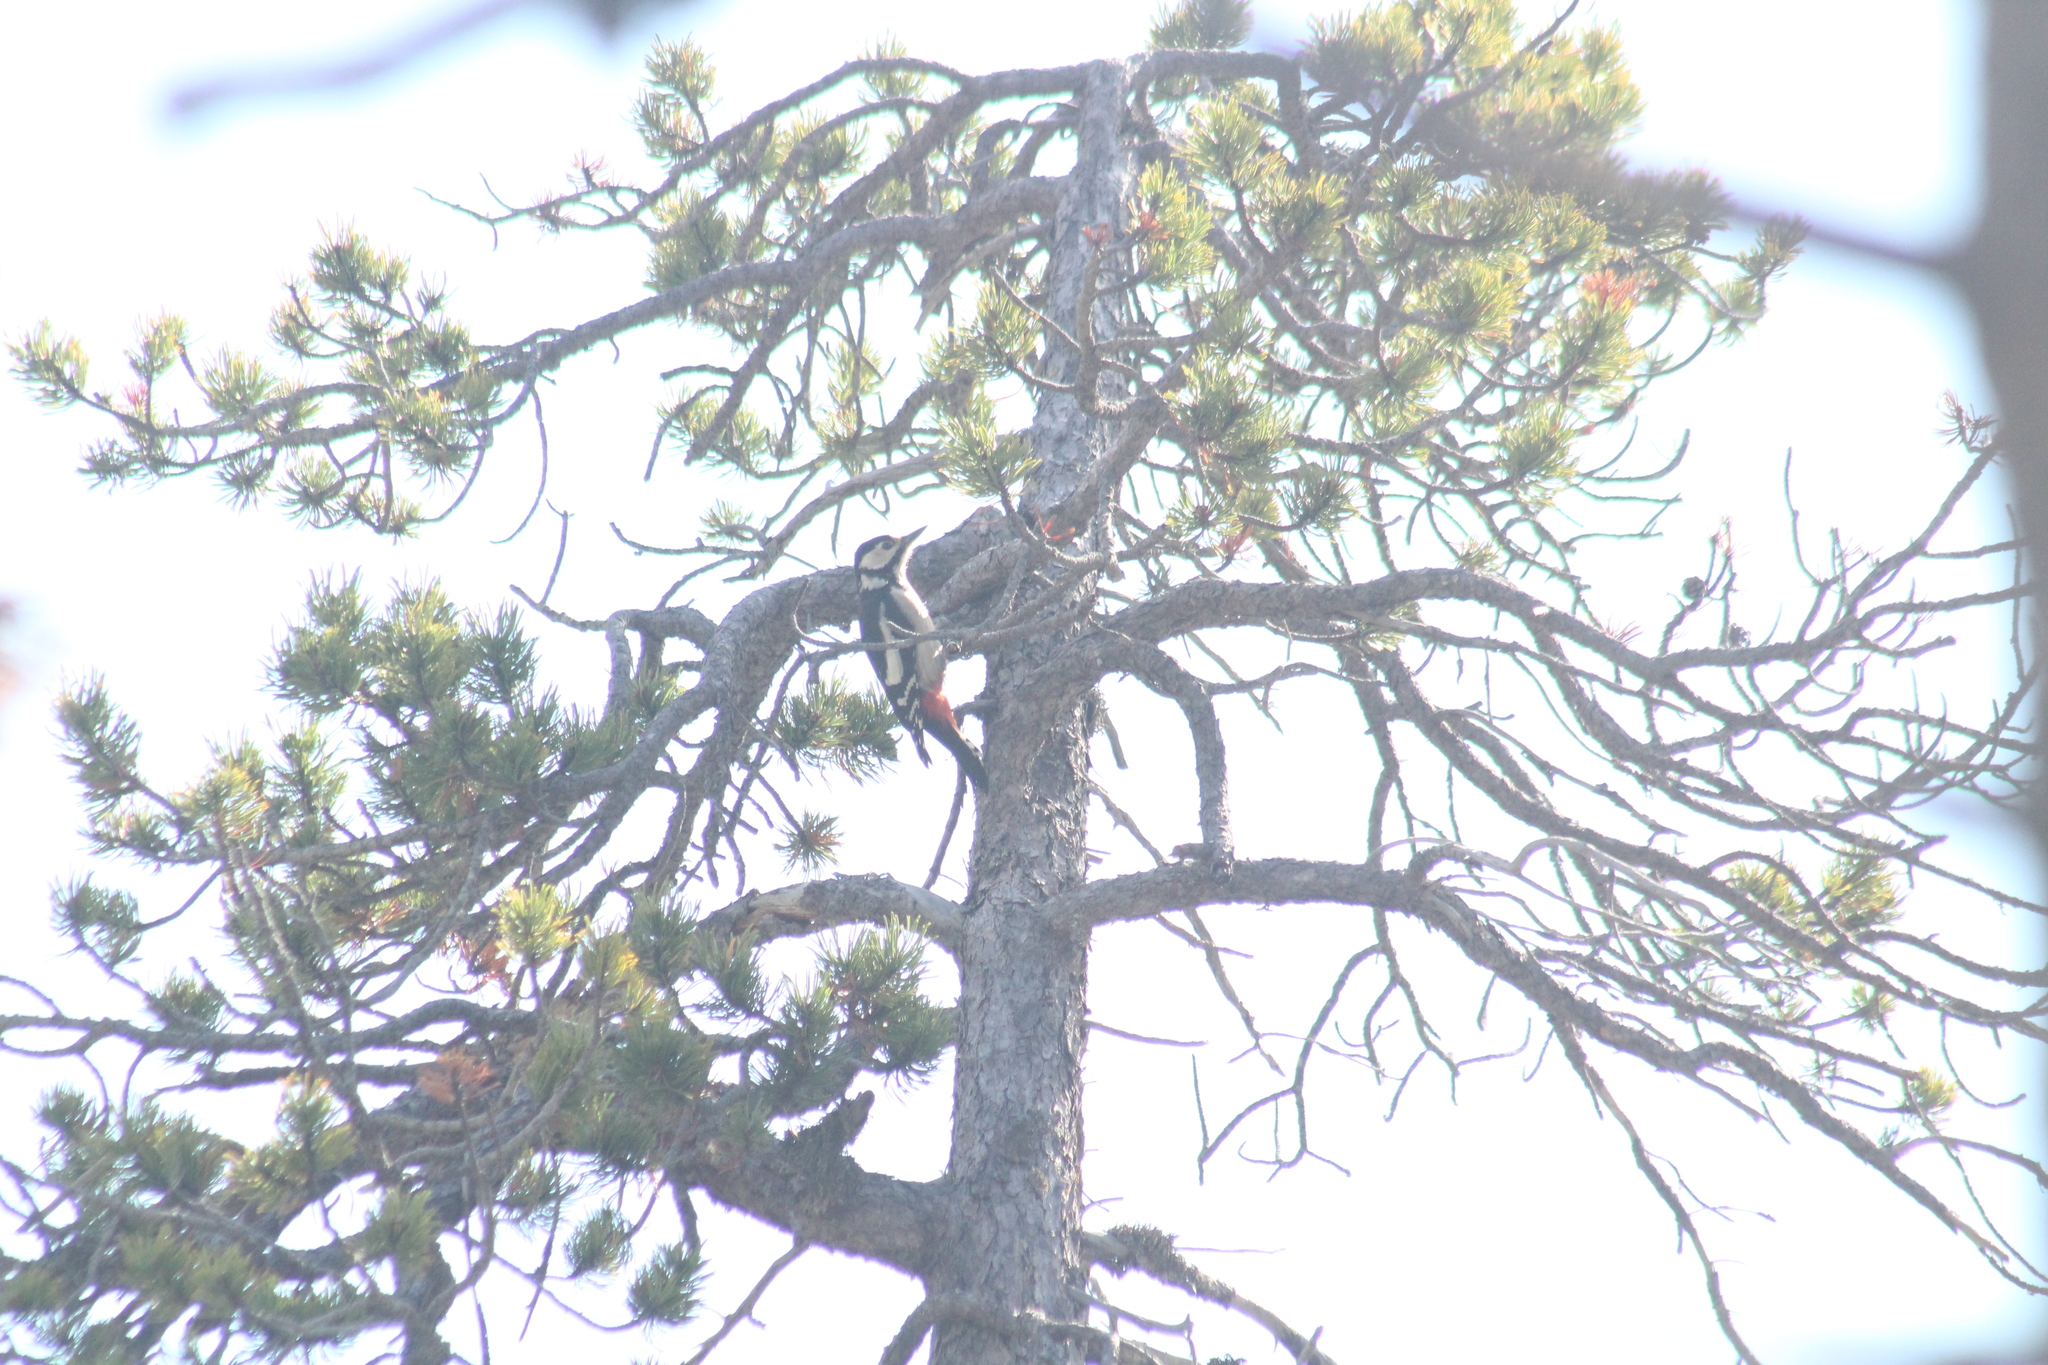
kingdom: Animalia
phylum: Chordata
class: Aves
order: Piciformes
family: Picidae
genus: Dendrocopos
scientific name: Dendrocopos major
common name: Great spotted woodpecker
